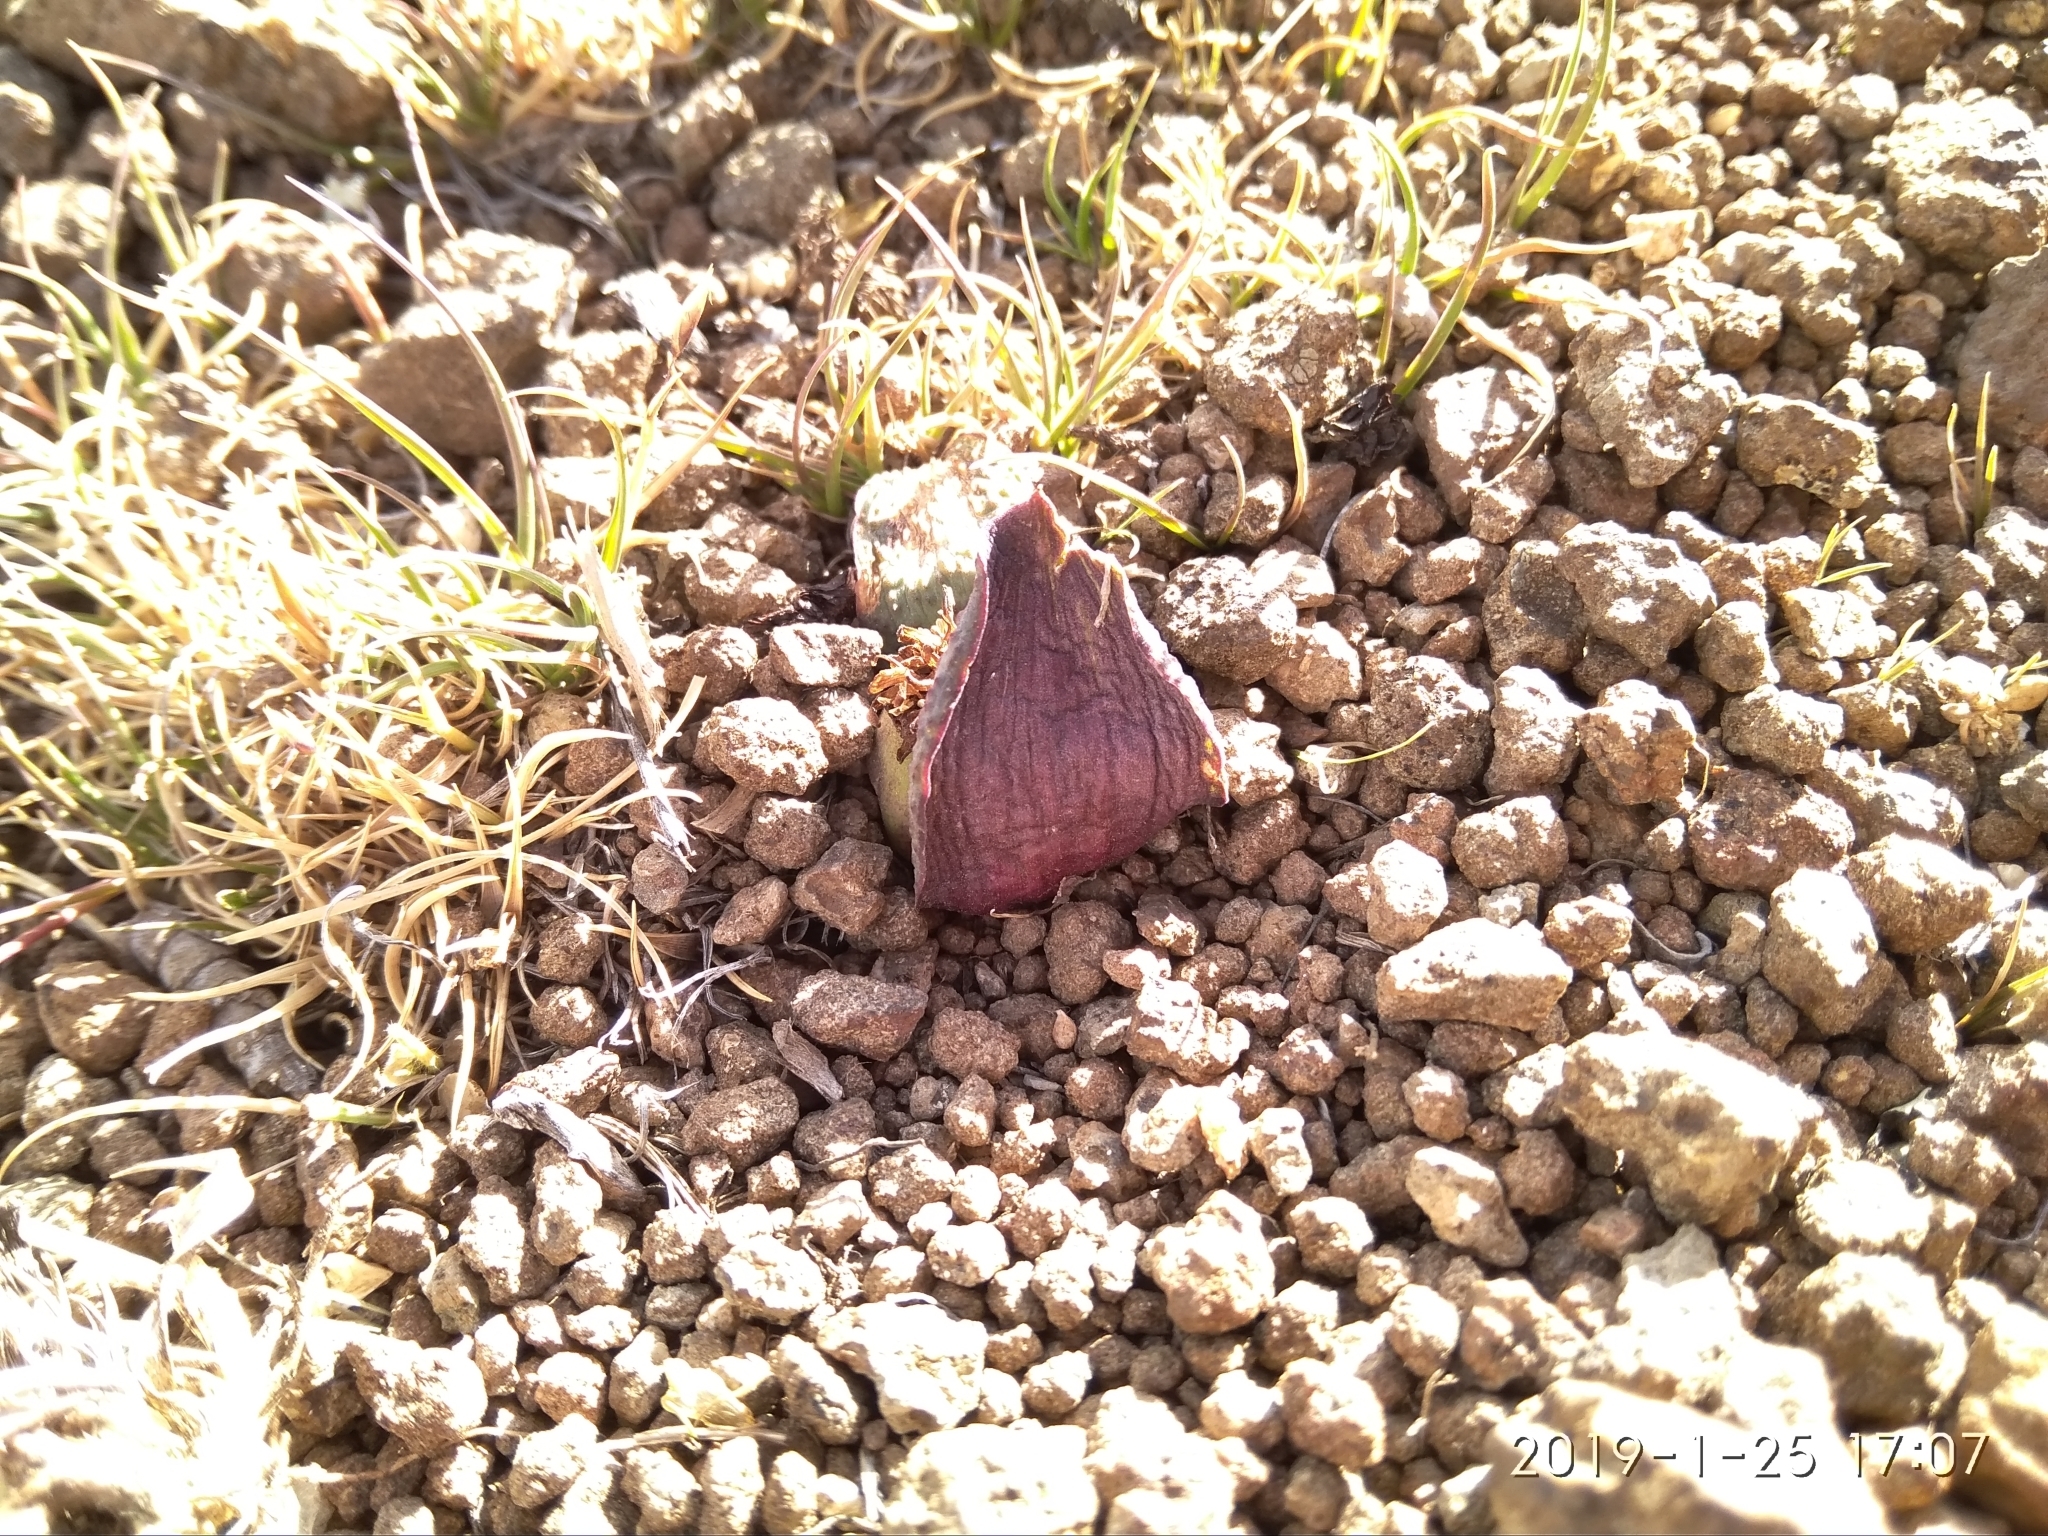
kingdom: Plantae
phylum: Tracheophyta
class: Liliopsida
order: Asparagales
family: Asparagaceae
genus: Massonia
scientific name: Massonia saniensis
